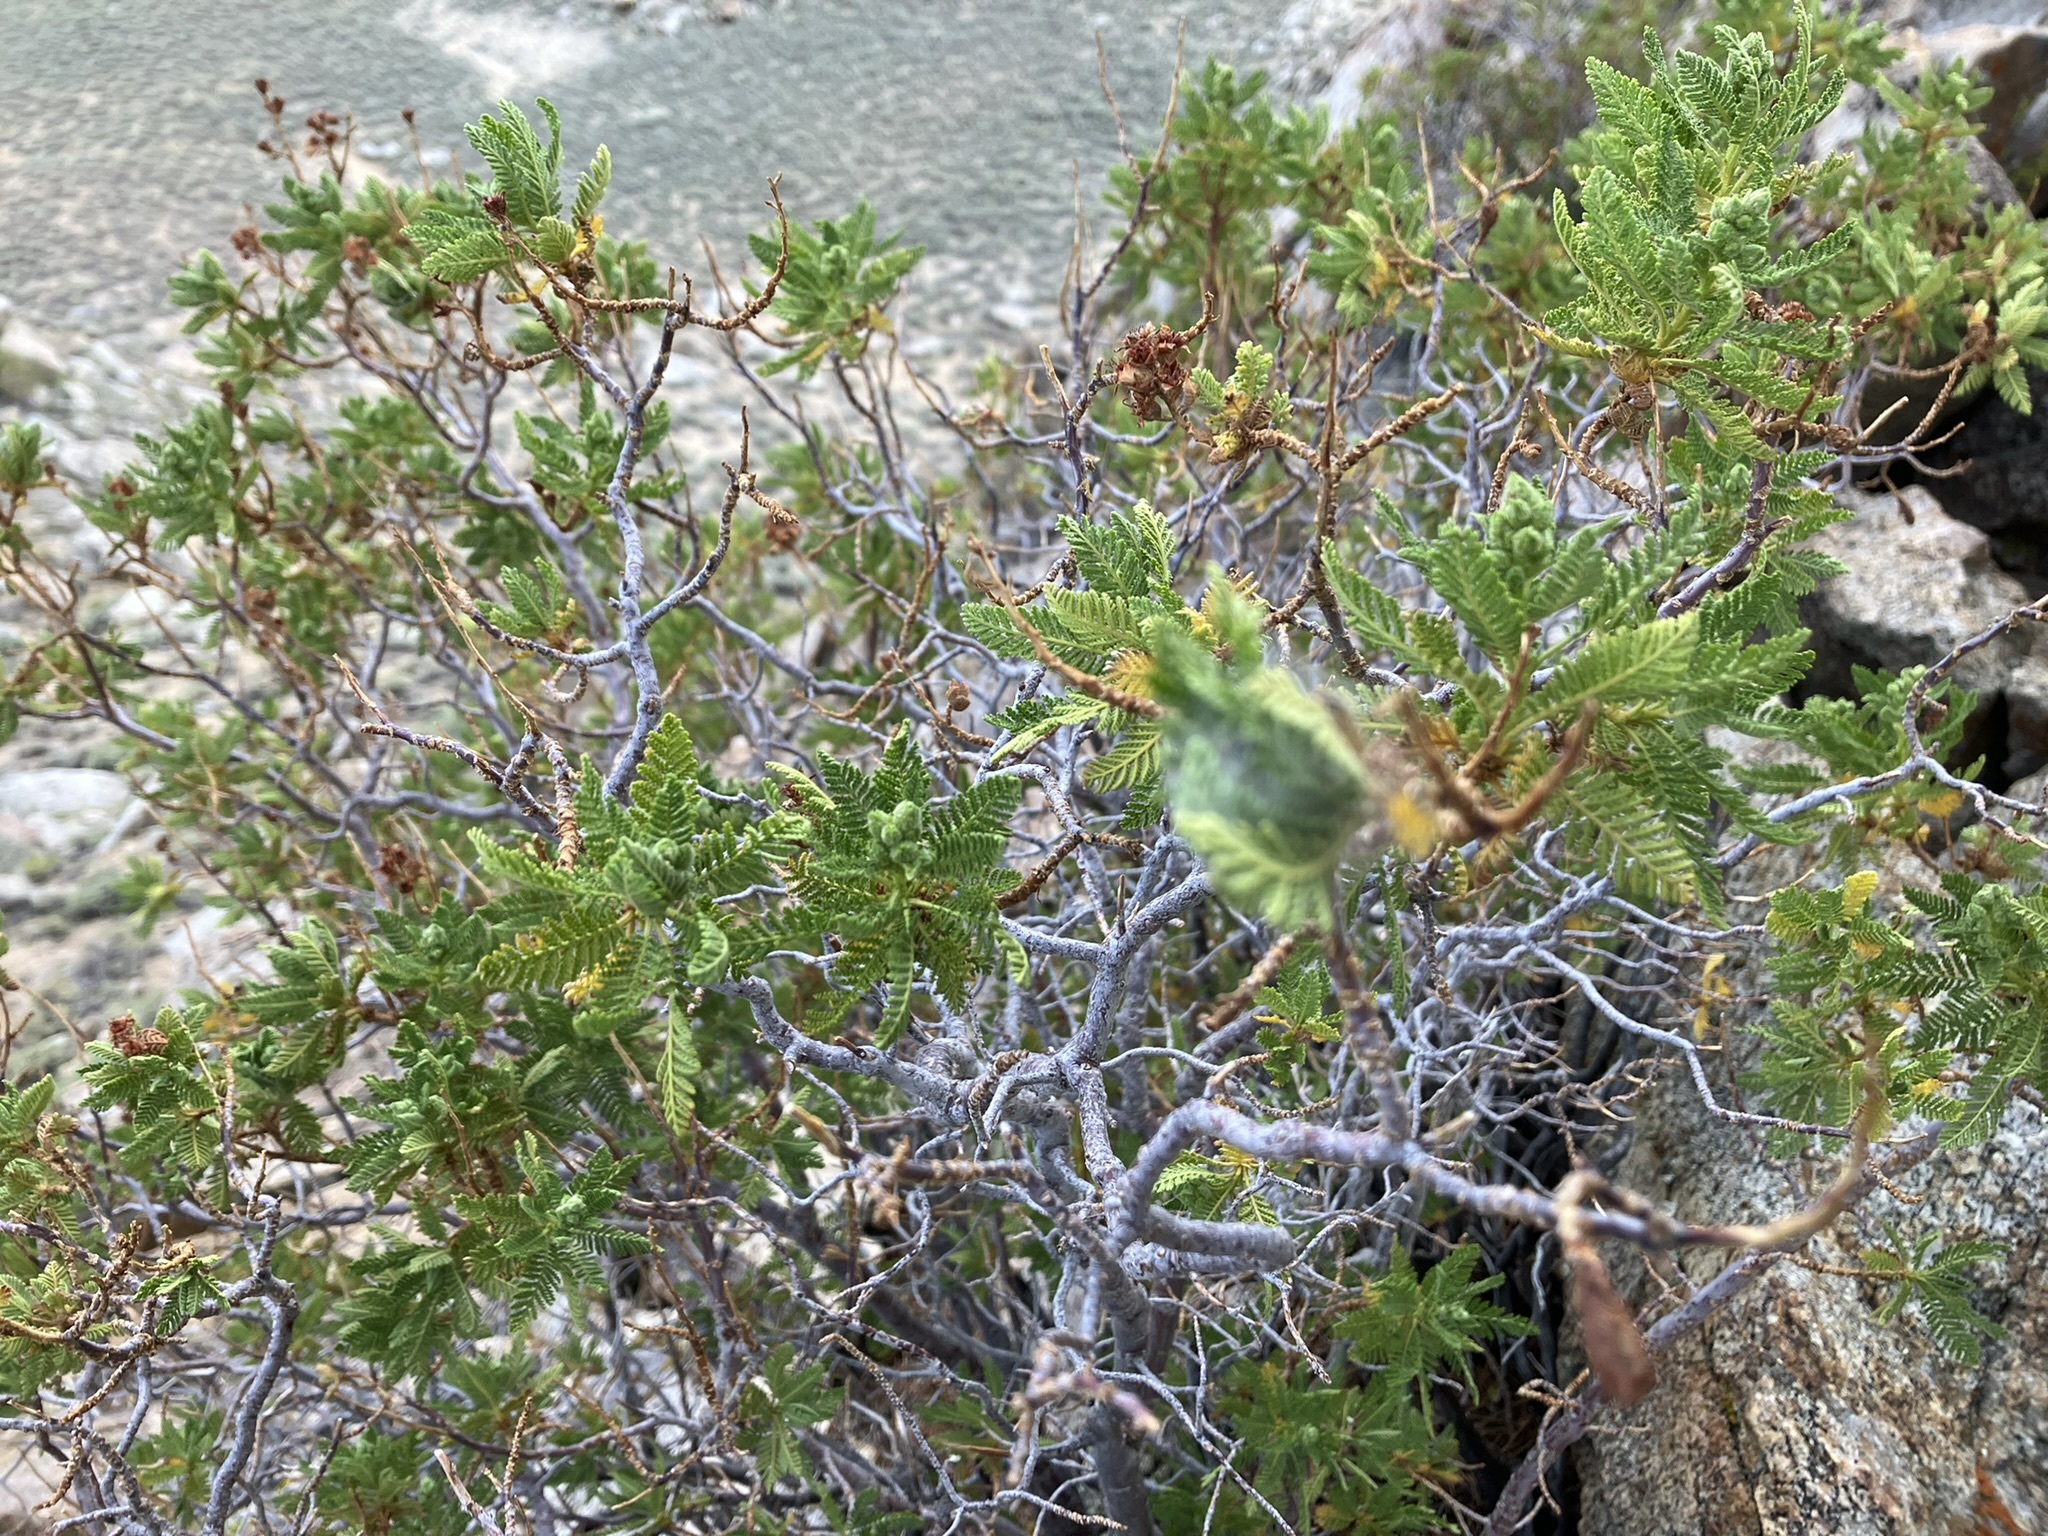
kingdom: Plantae
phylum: Tracheophyta
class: Magnoliopsida
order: Rosales
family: Rosaceae
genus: Chamaebatiaria
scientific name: Chamaebatiaria millefolium
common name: Fernbush
